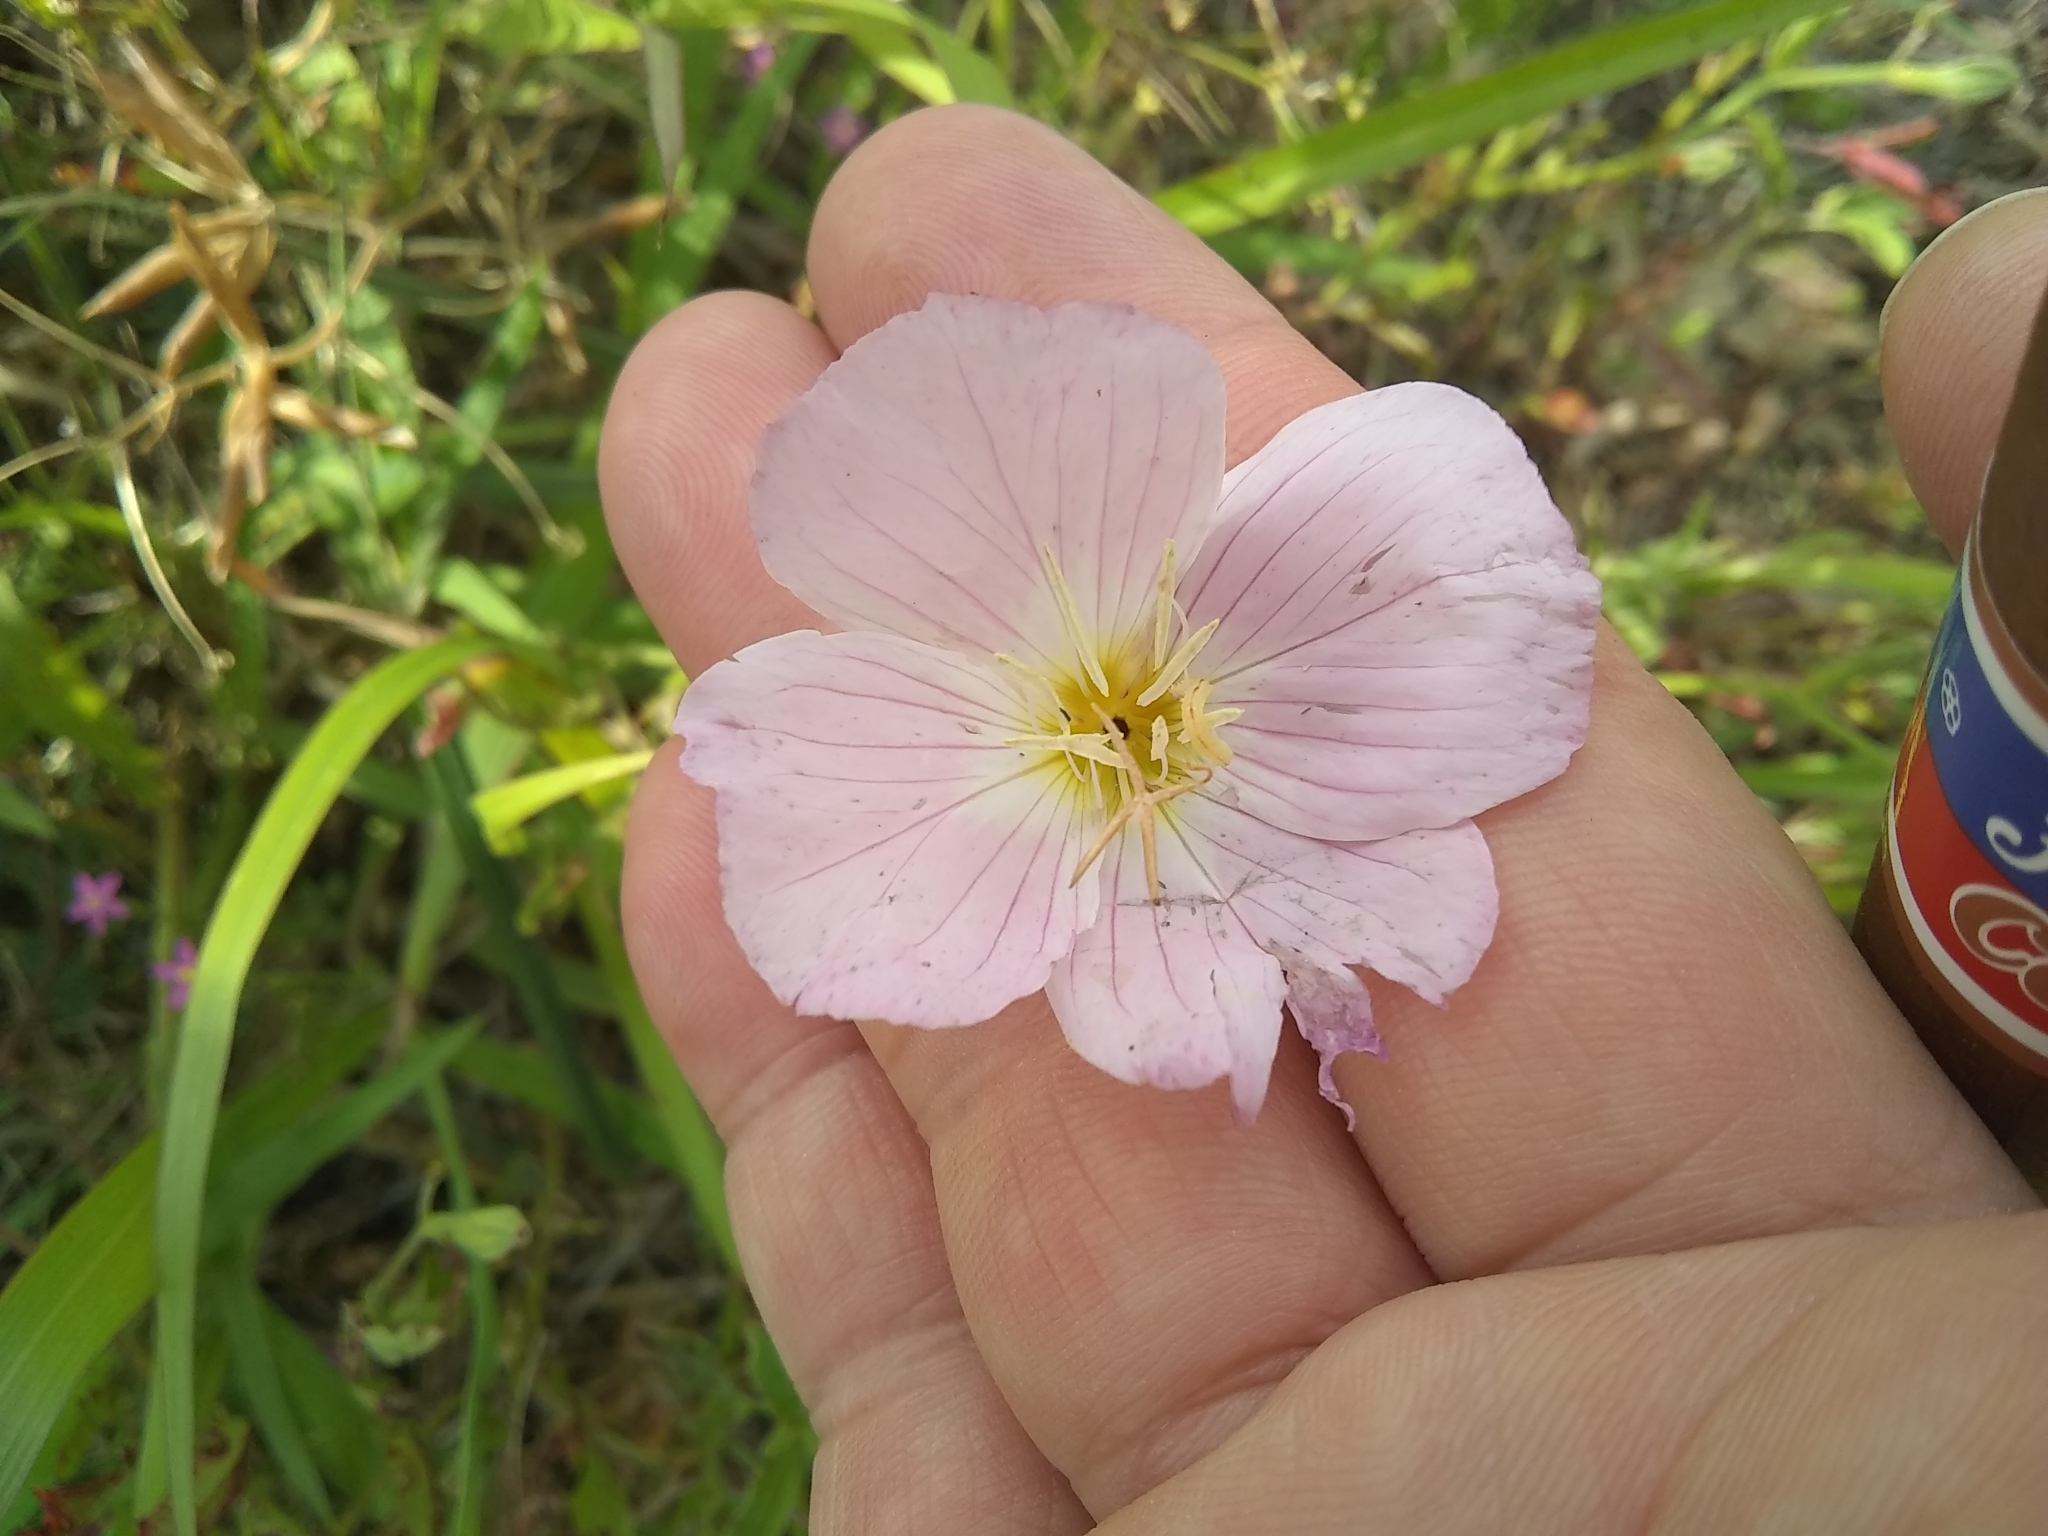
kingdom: Plantae
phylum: Tracheophyta
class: Magnoliopsida
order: Myrtales
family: Onagraceae
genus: Oenothera
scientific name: Oenothera speciosa
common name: White evening-primrose
